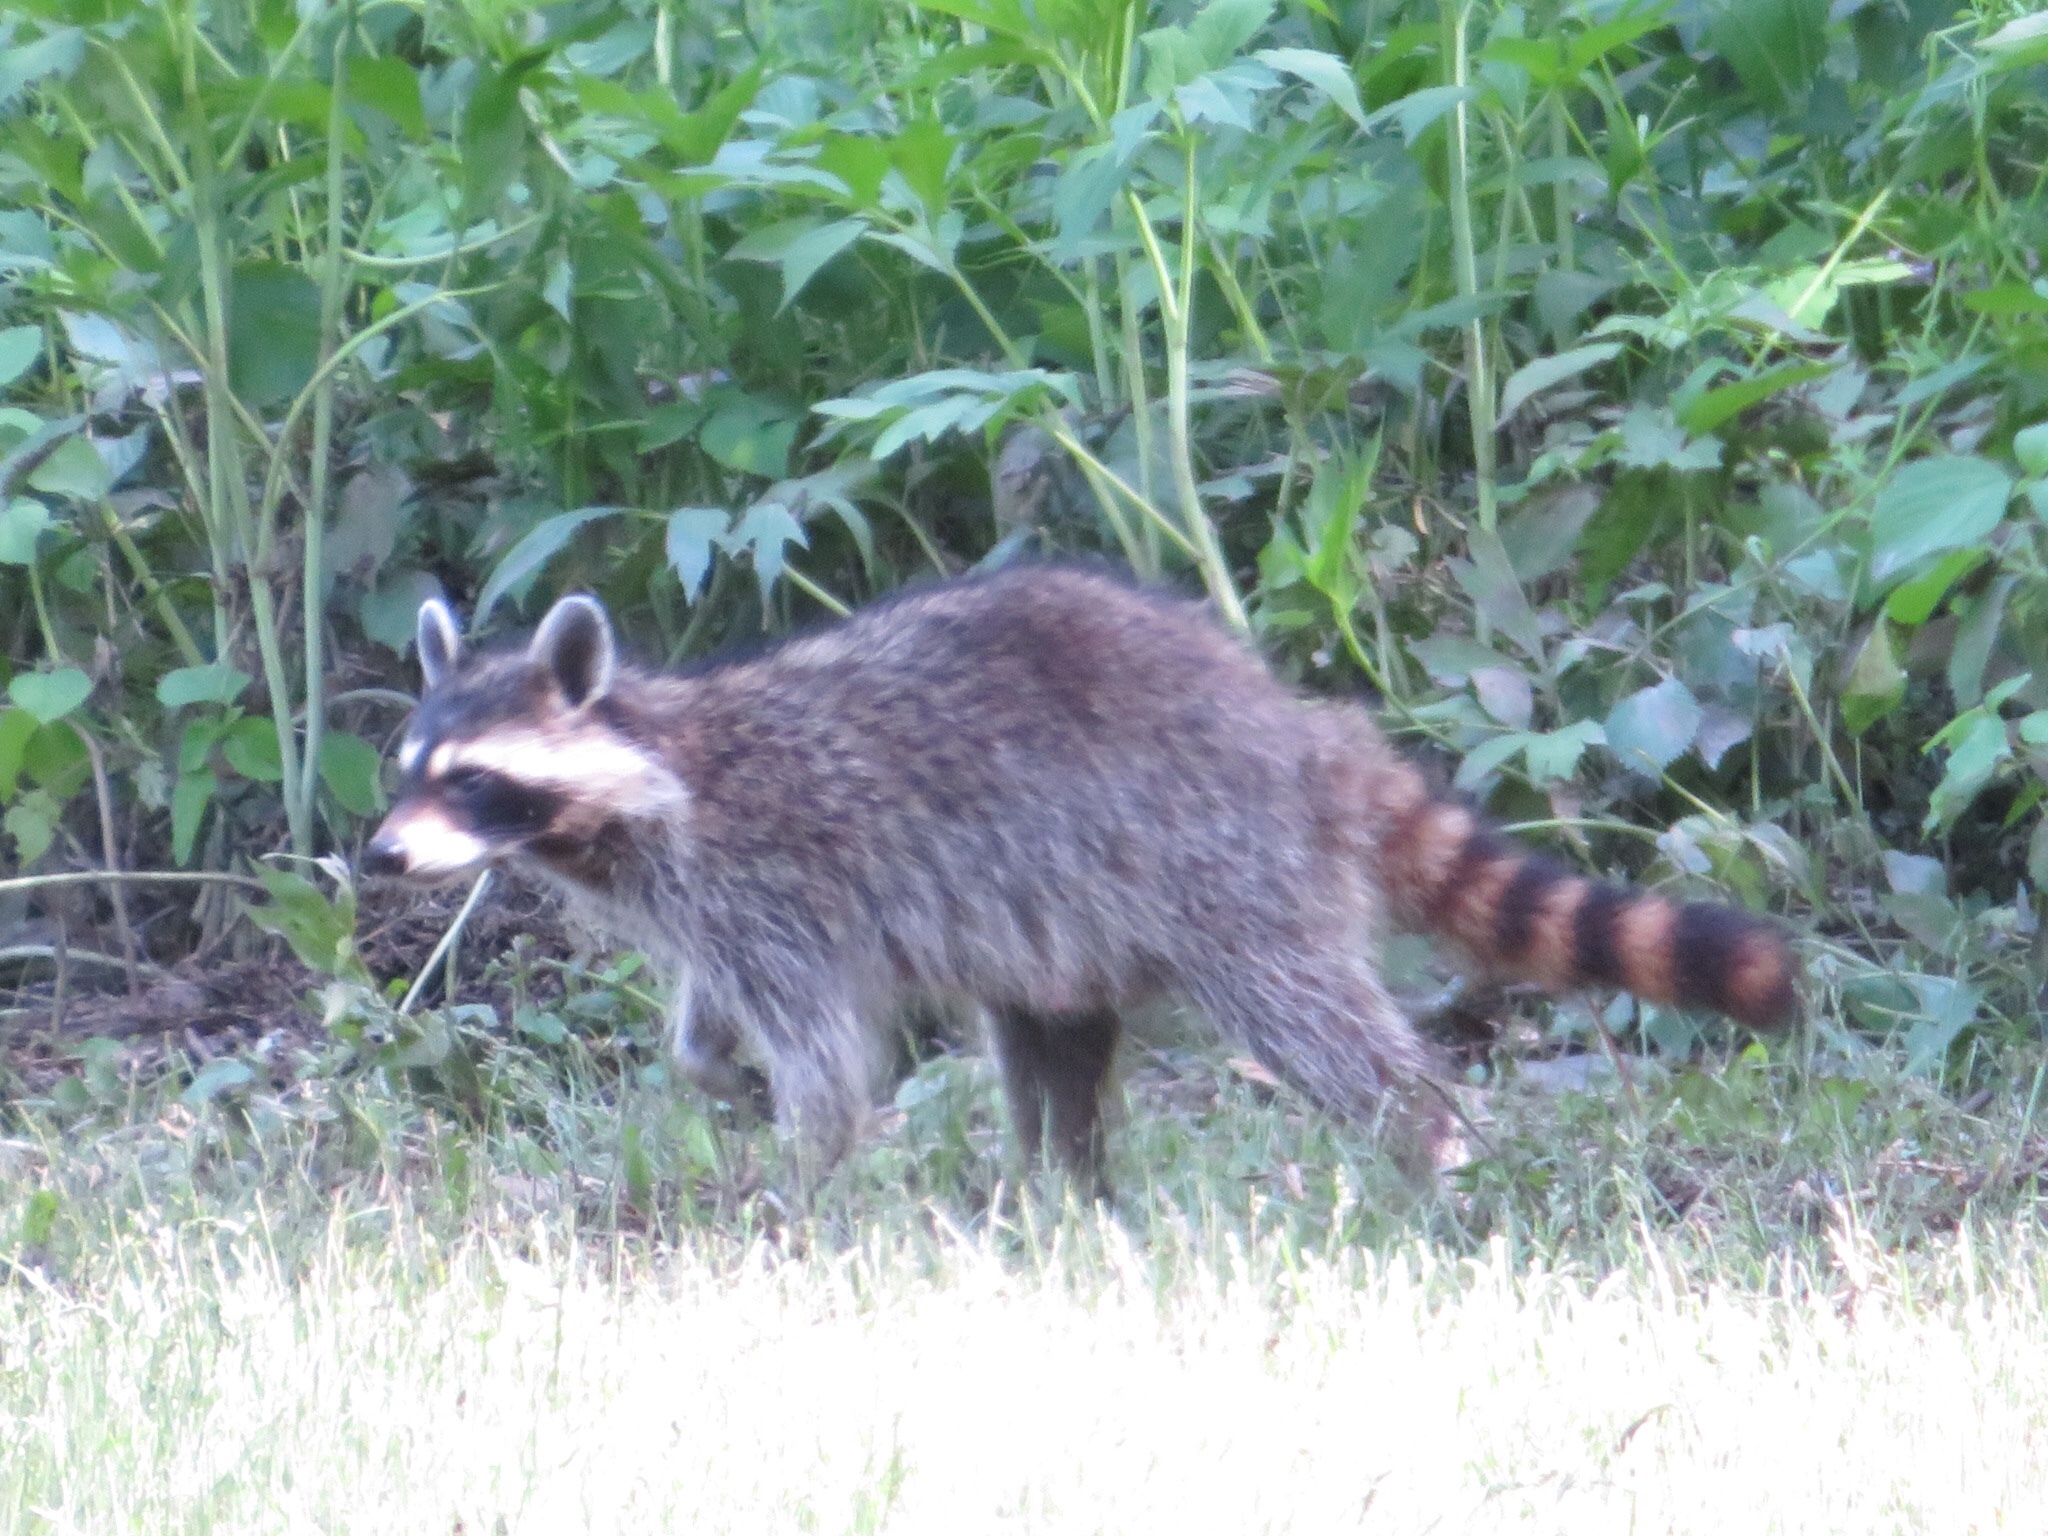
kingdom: Animalia
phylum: Chordata
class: Mammalia
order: Carnivora
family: Procyonidae
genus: Procyon
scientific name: Procyon lotor
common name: Raccoon
